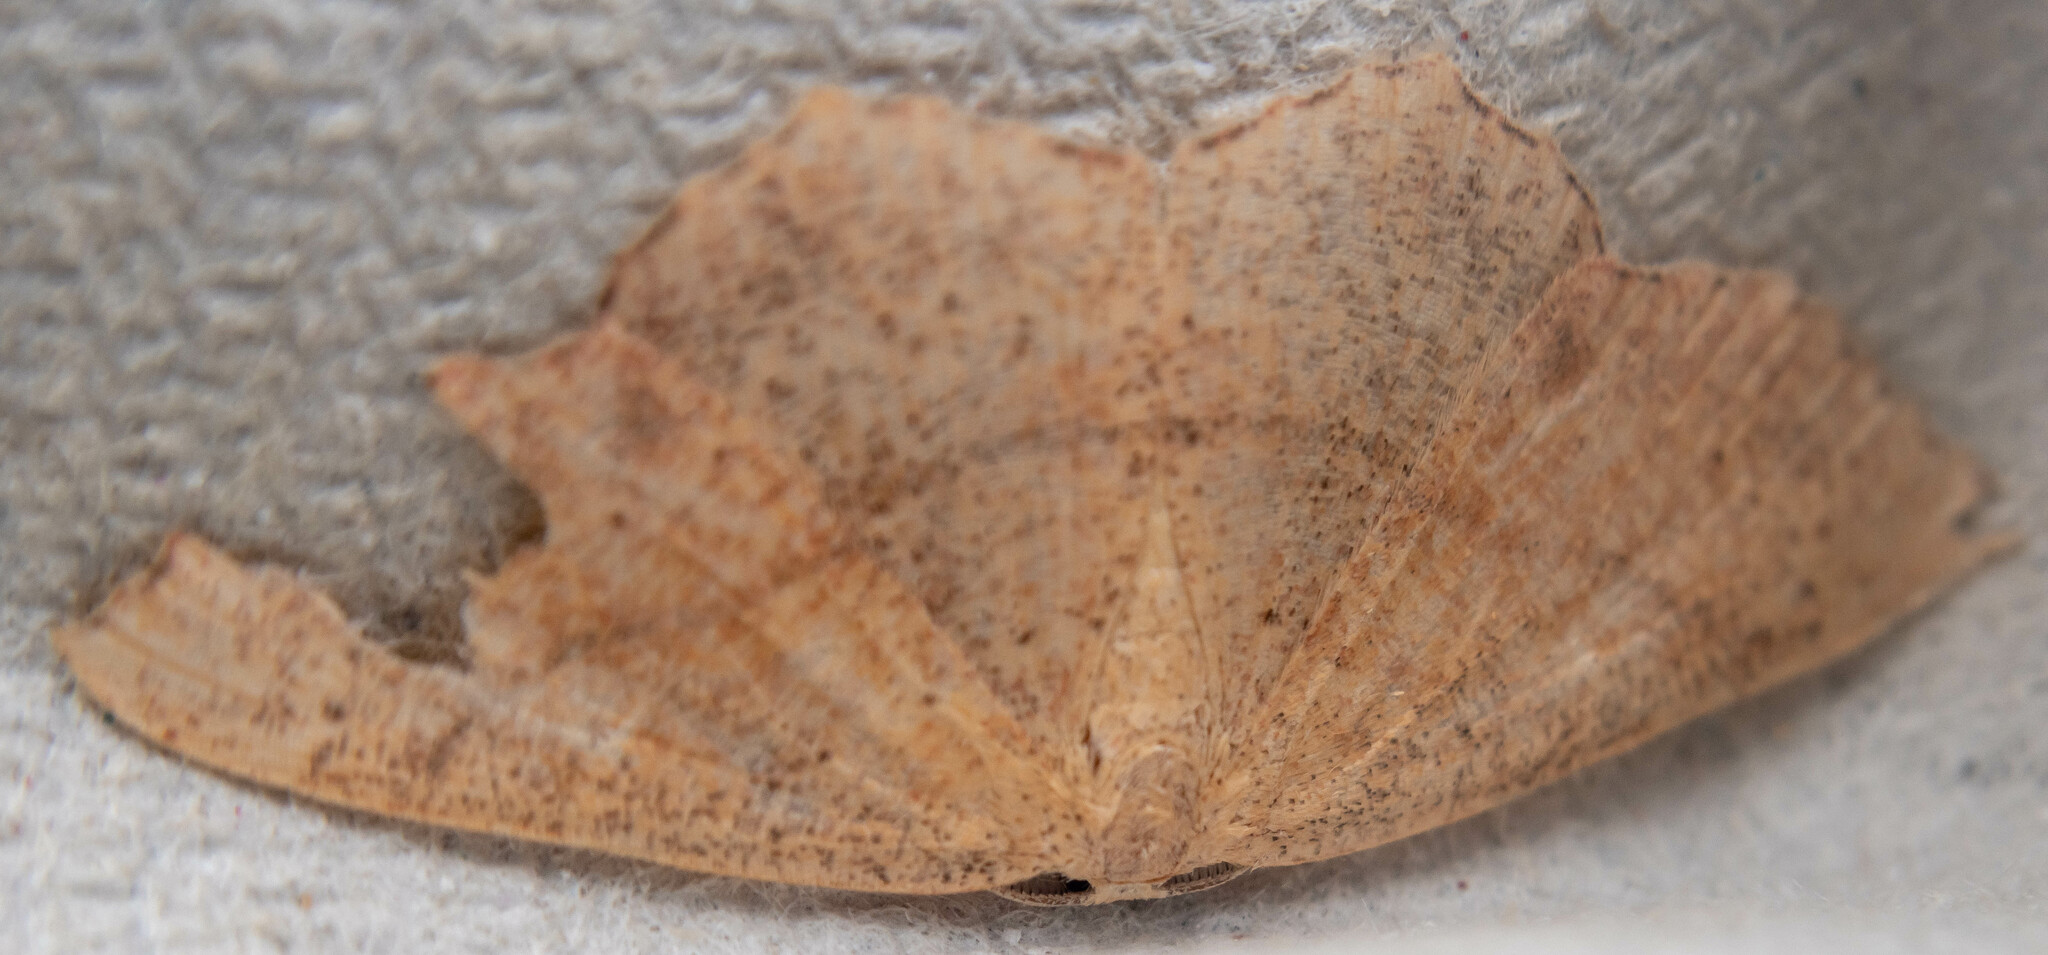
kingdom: Animalia
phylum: Arthropoda
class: Insecta
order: Lepidoptera
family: Geometridae
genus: Cyclophora
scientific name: Cyclophora punctaria
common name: Maiden's blush
